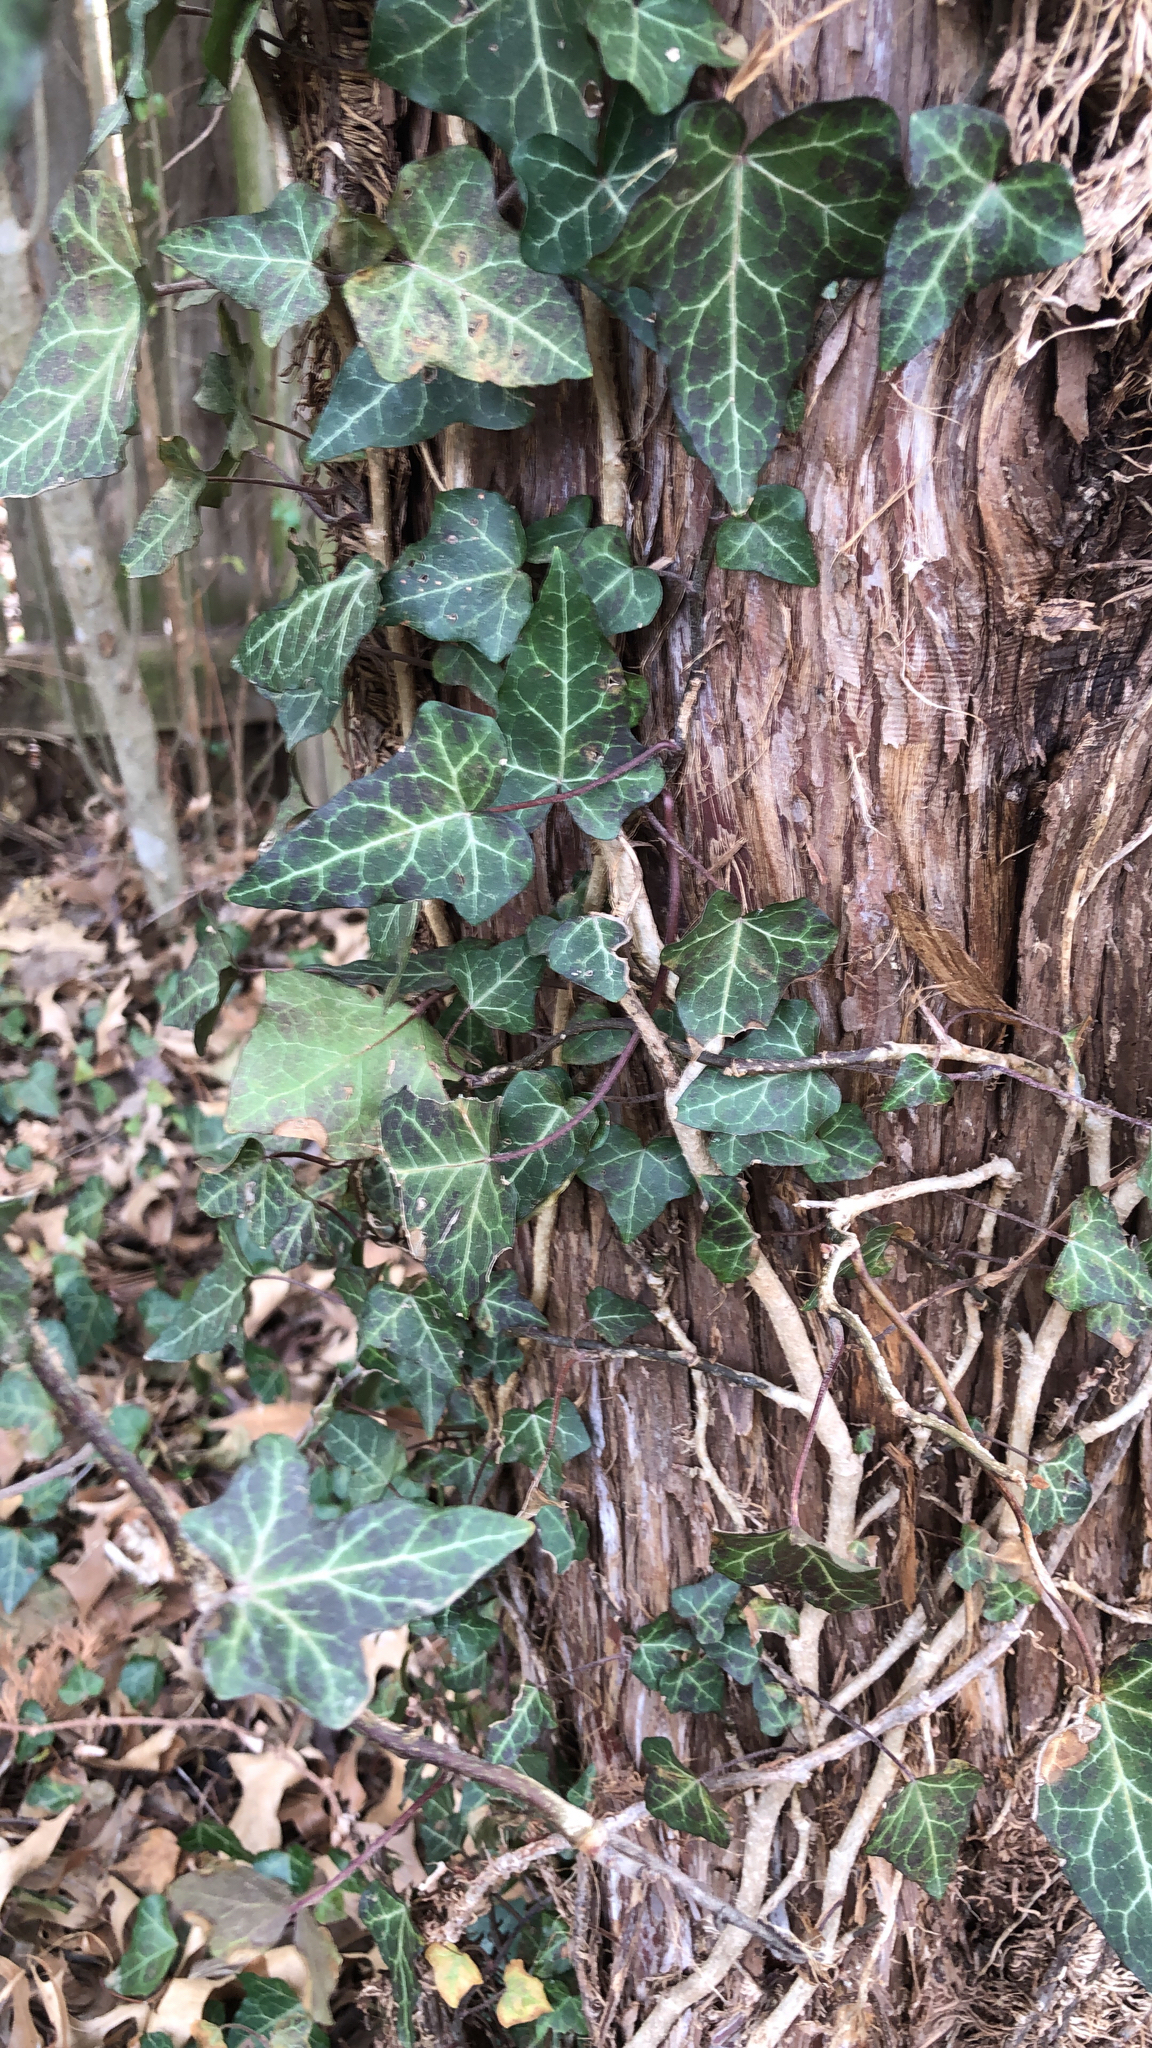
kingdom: Plantae
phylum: Tracheophyta
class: Magnoliopsida
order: Apiales
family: Araliaceae
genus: Hedera
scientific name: Hedera helix
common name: Ivy
